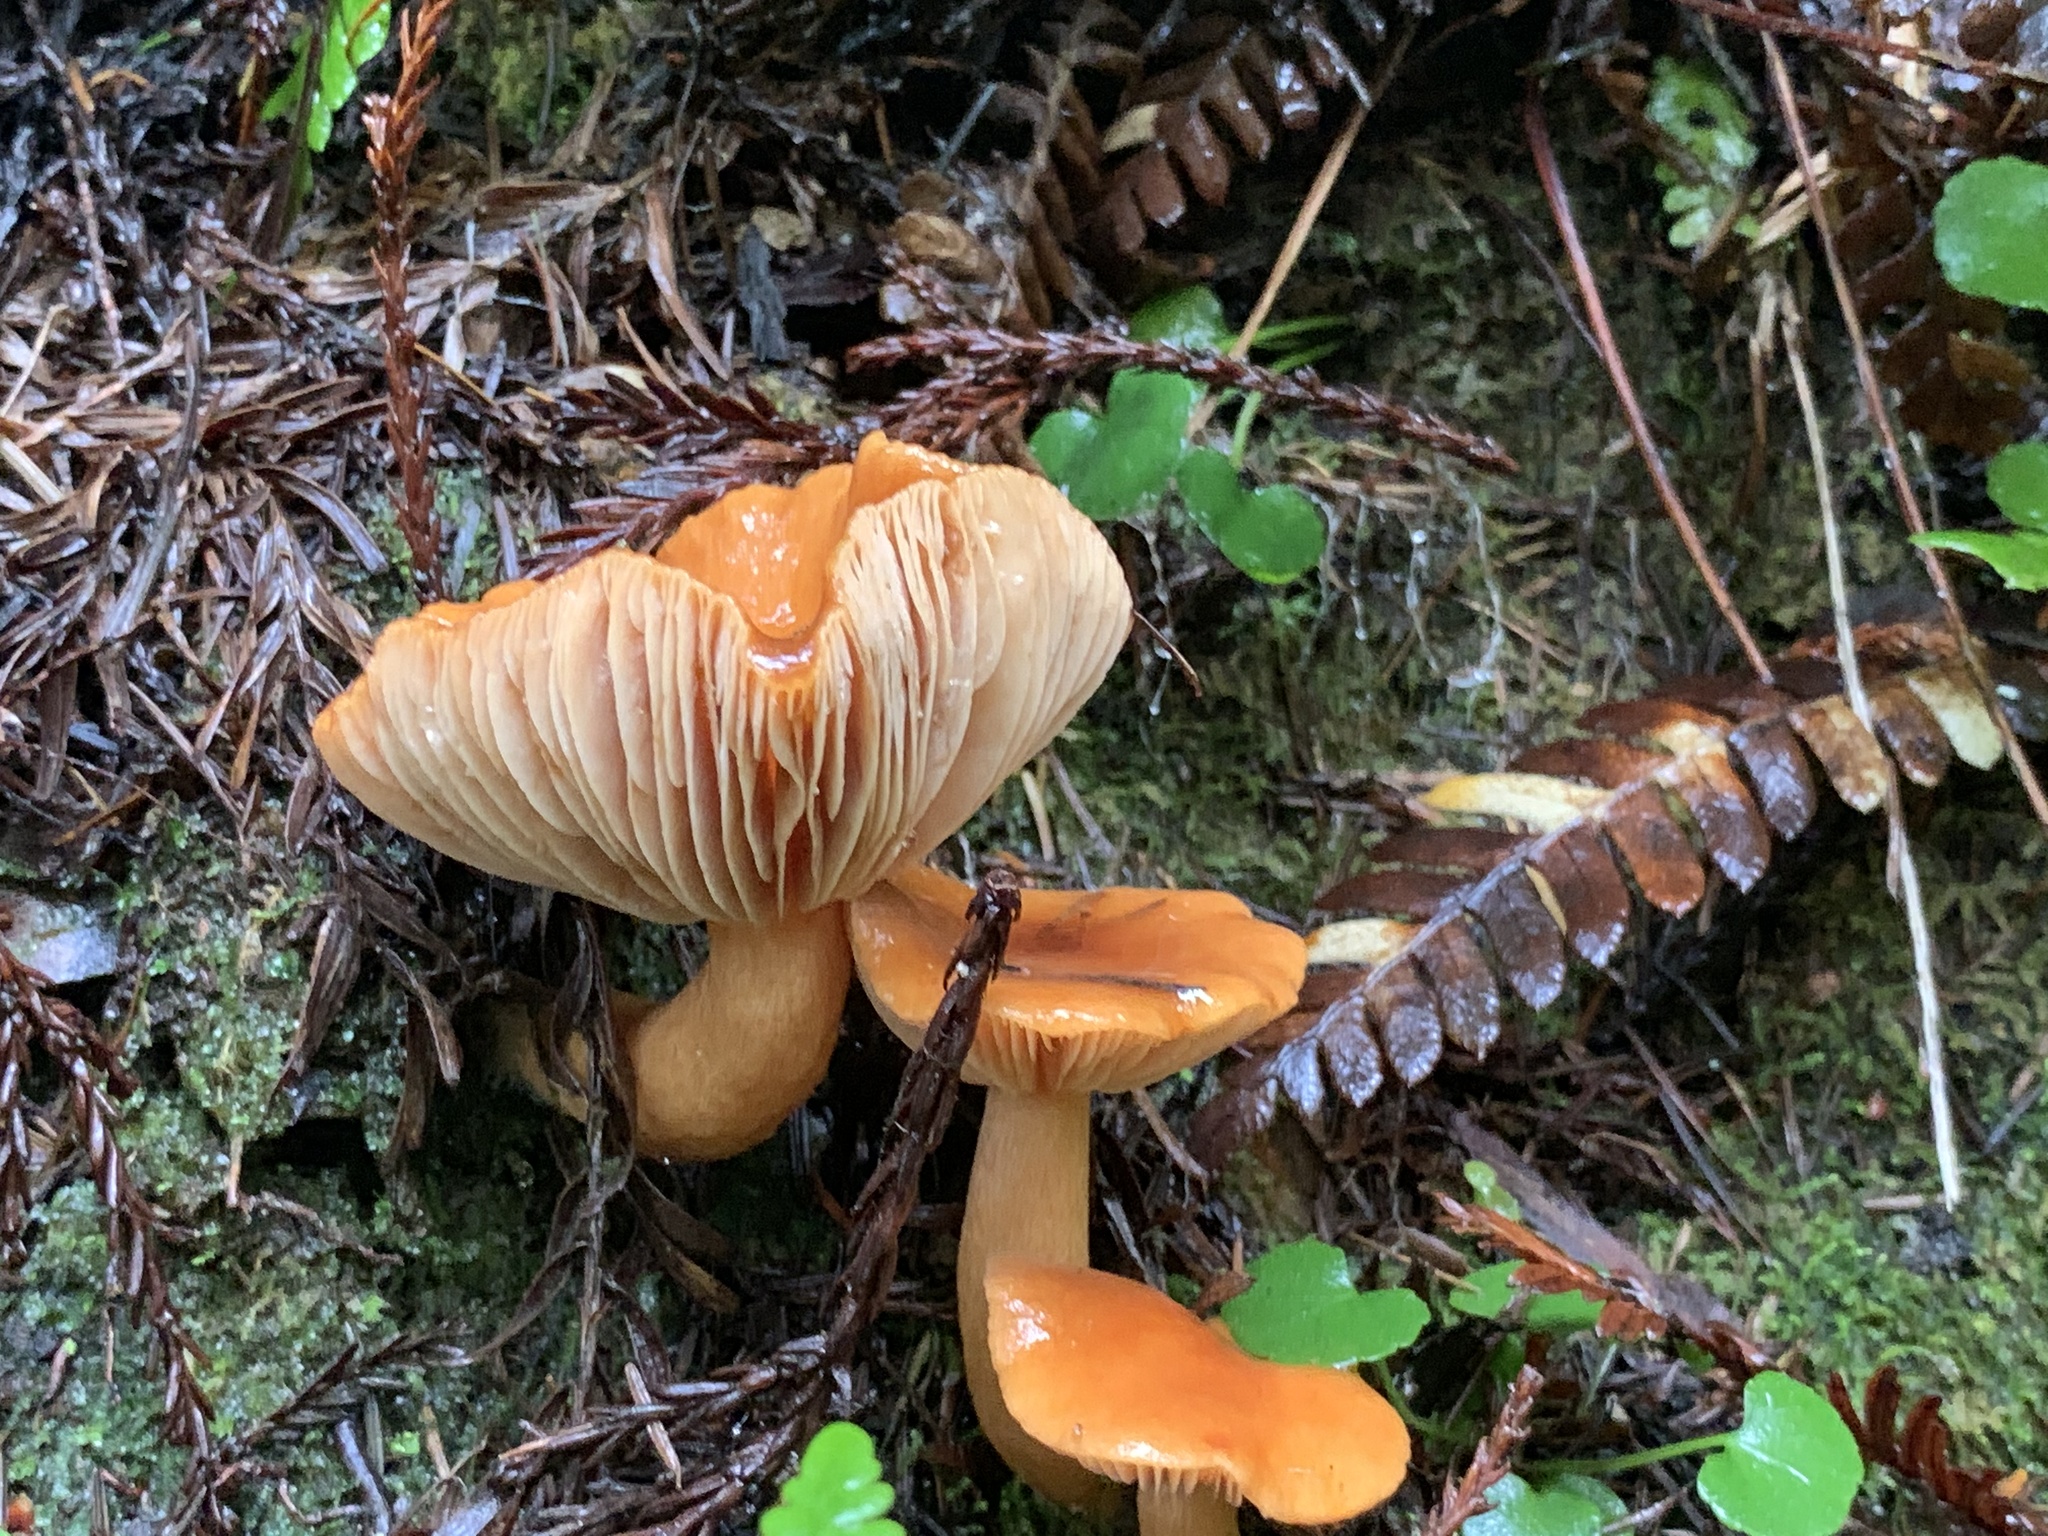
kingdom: Fungi
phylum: Basidiomycota
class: Agaricomycetes
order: Russulales
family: Russulaceae
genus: Lactarius
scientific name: Lactarius rubidus
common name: Candy cap
